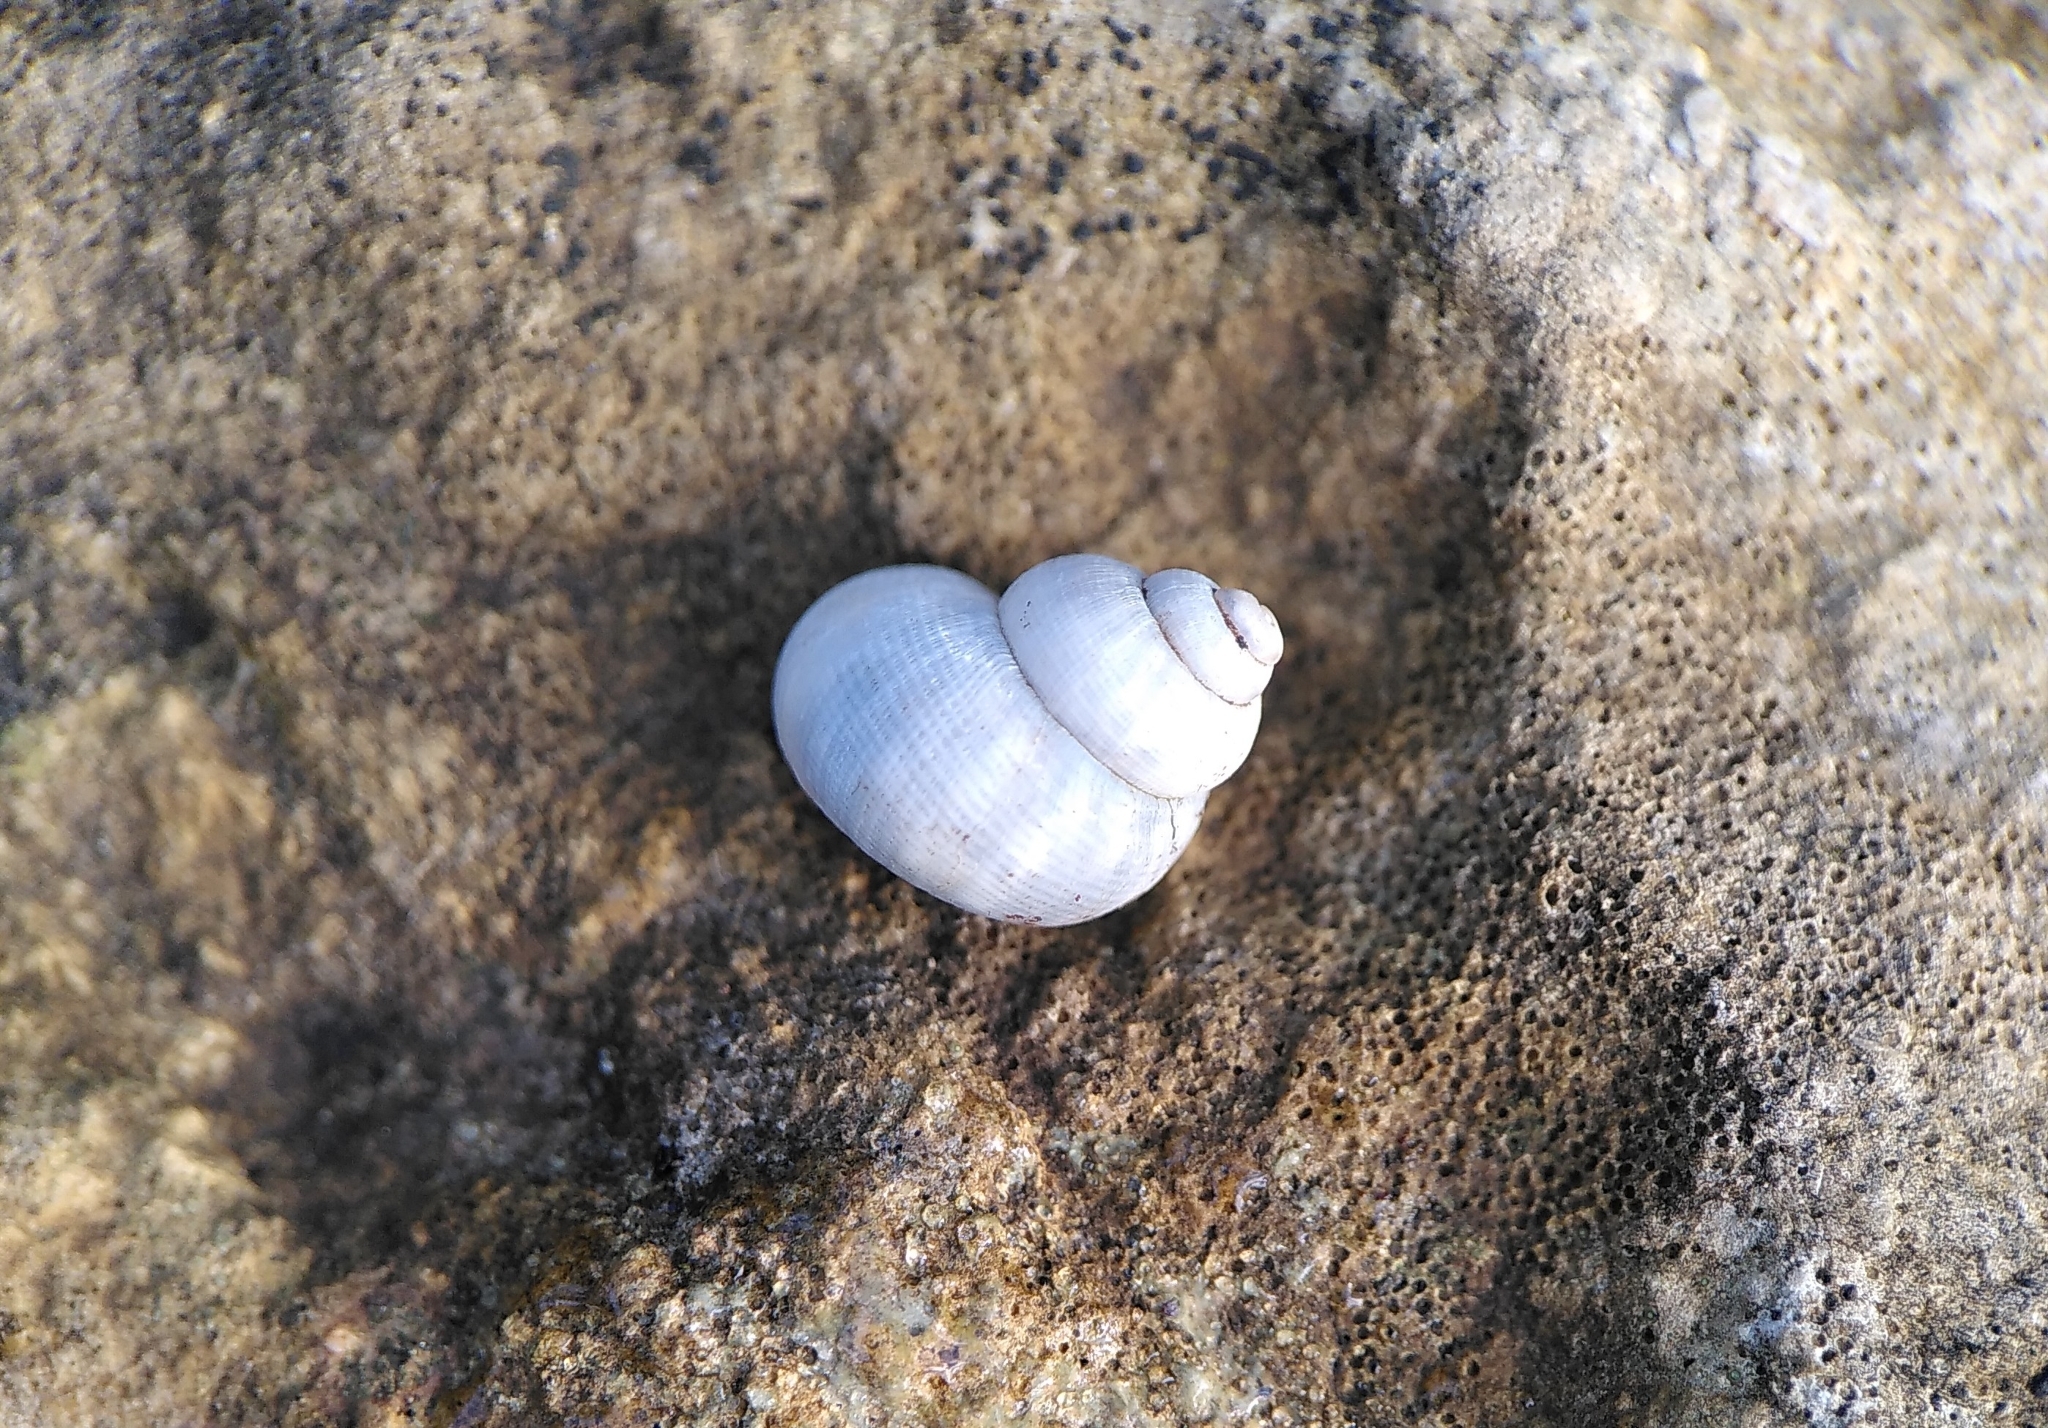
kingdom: Animalia
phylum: Mollusca
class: Gastropoda
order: Littorinimorpha
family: Pomatiidae
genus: Pomatias
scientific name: Pomatias elegans
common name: Red-mouthed snail
